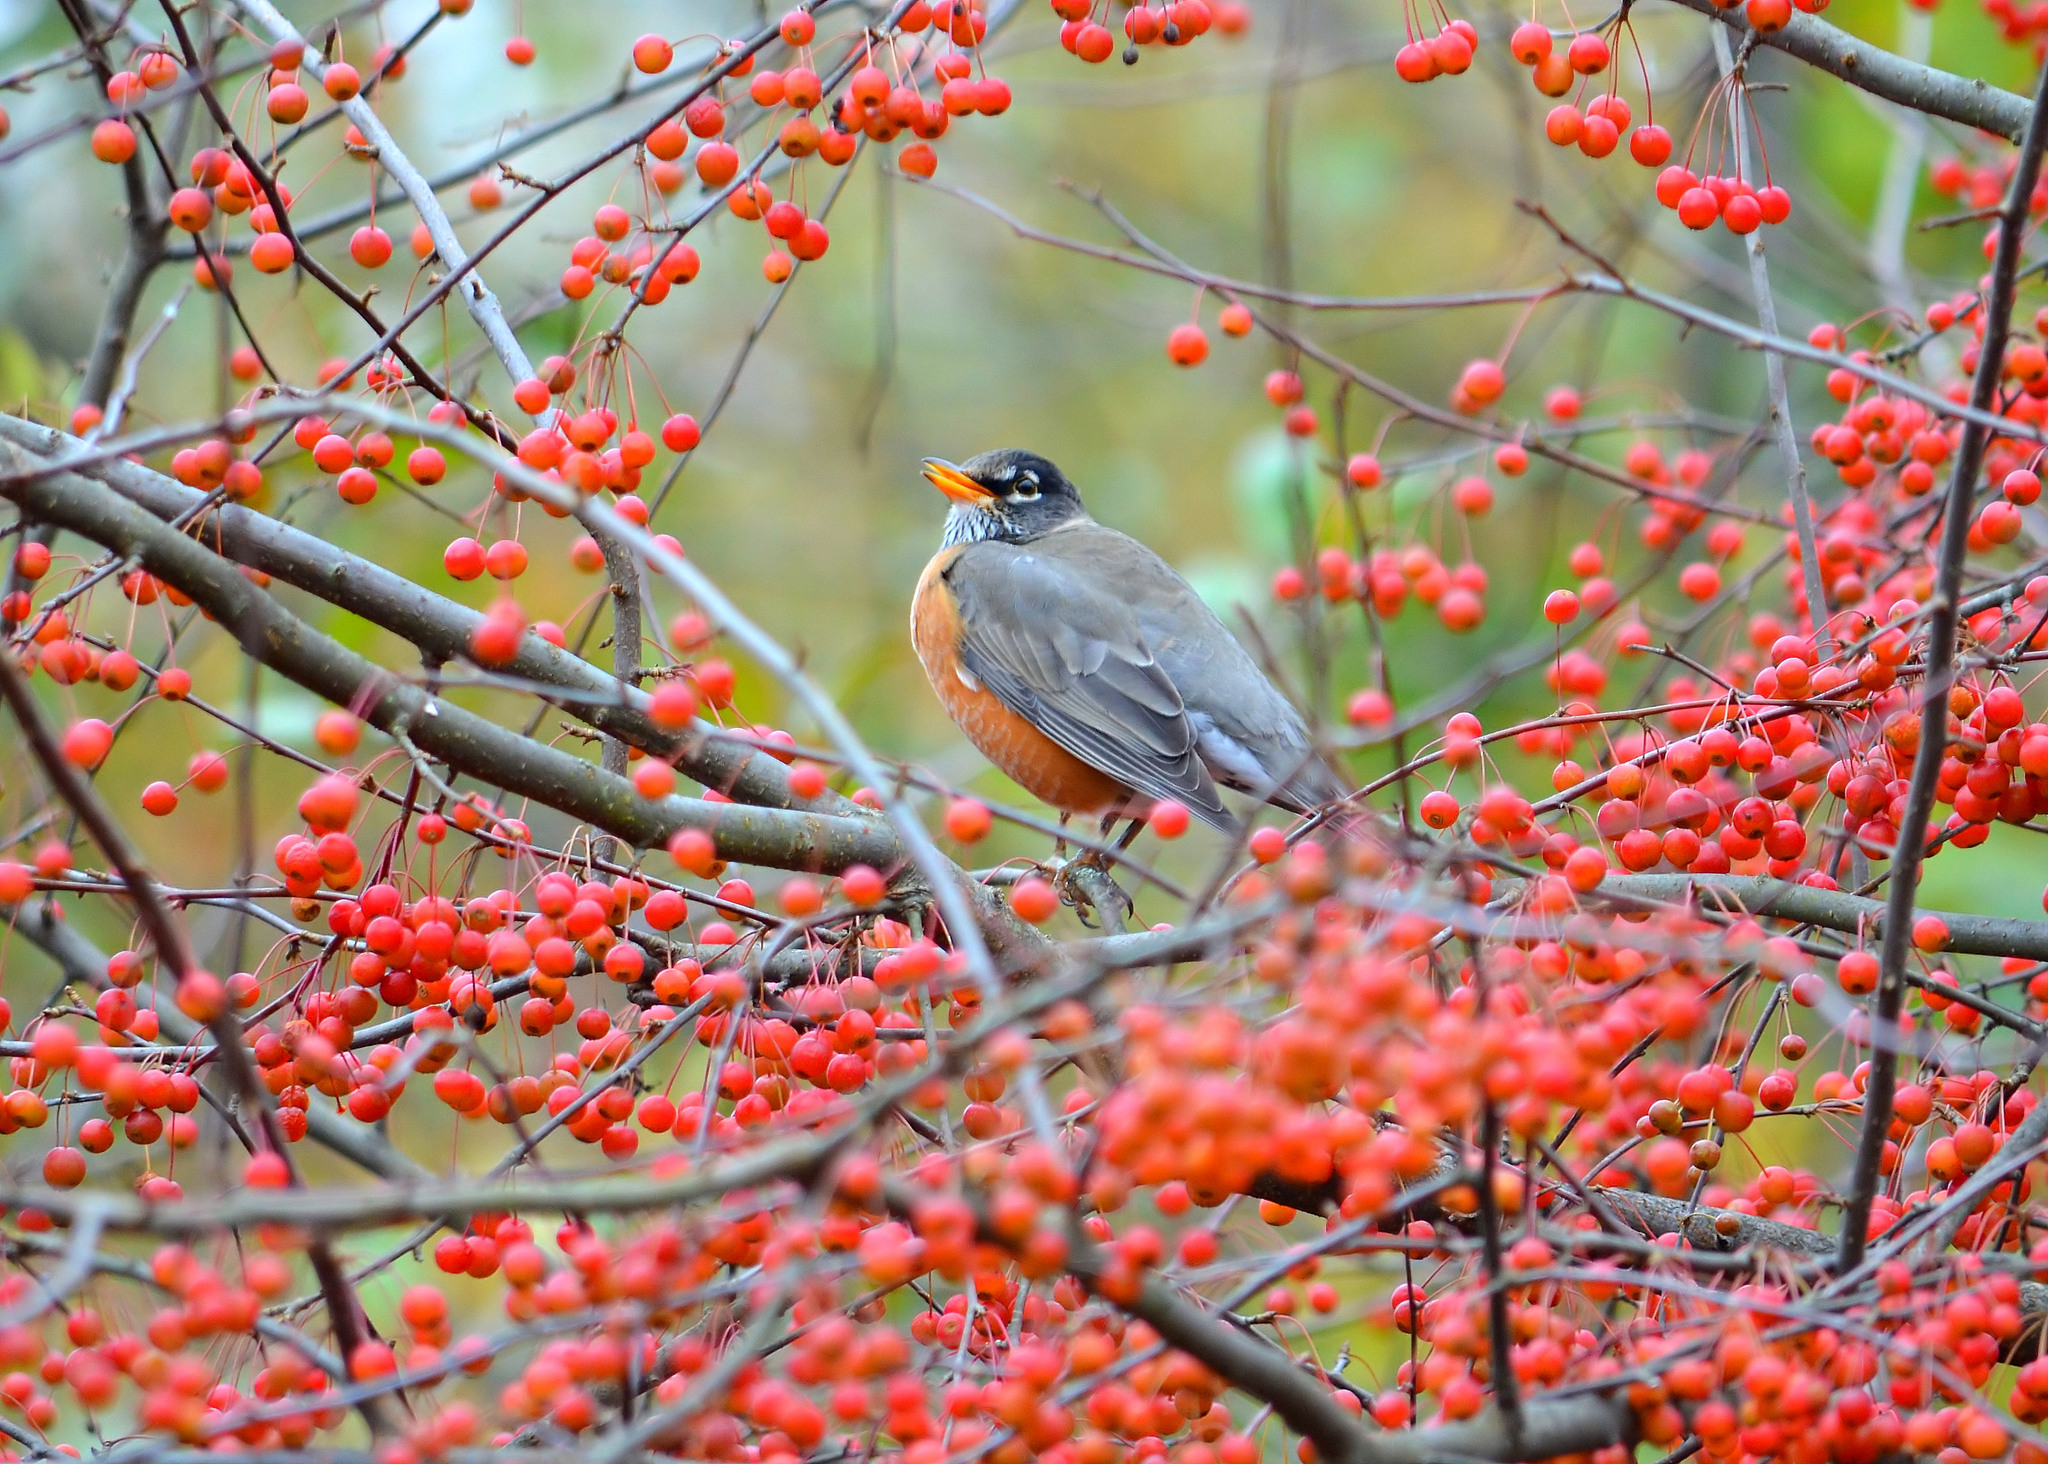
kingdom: Animalia
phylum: Chordata
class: Aves
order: Passeriformes
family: Turdidae
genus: Turdus
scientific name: Turdus migratorius
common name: American robin
